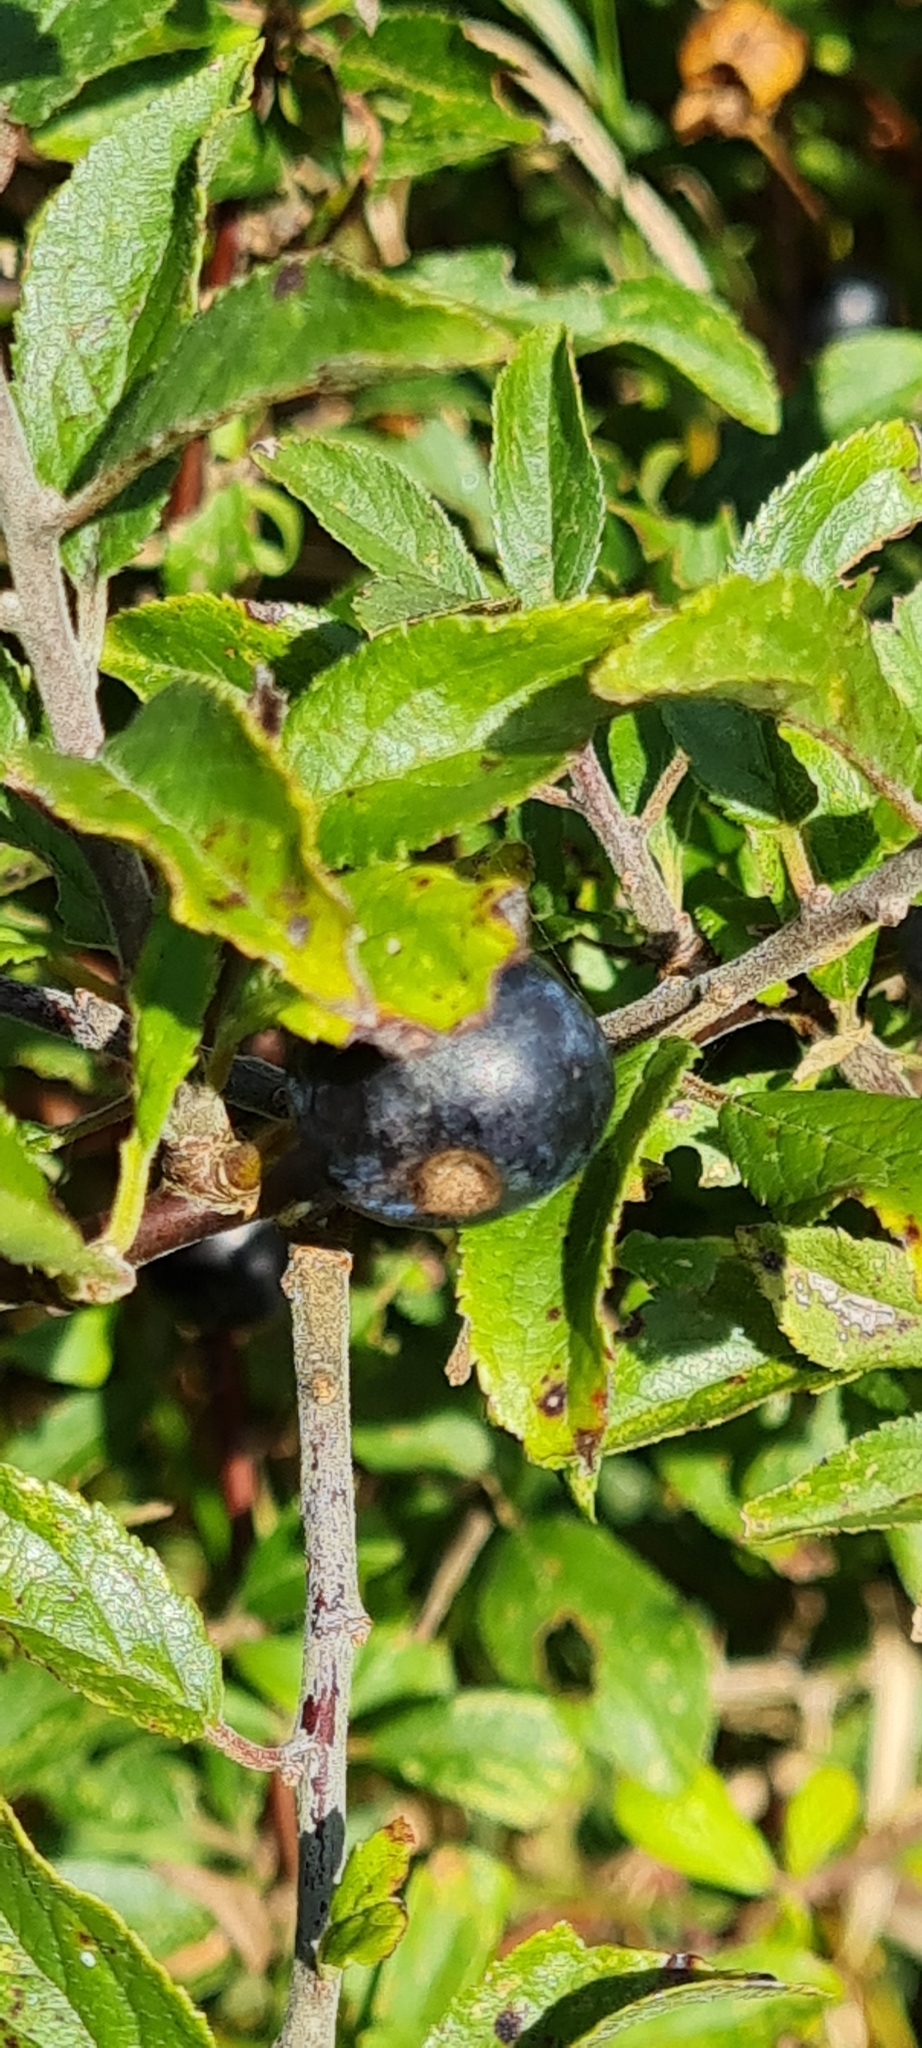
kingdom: Plantae
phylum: Tracheophyta
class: Magnoliopsida
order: Rosales
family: Rosaceae
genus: Prunus
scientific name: Prunus spinosa
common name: Blackthorn
